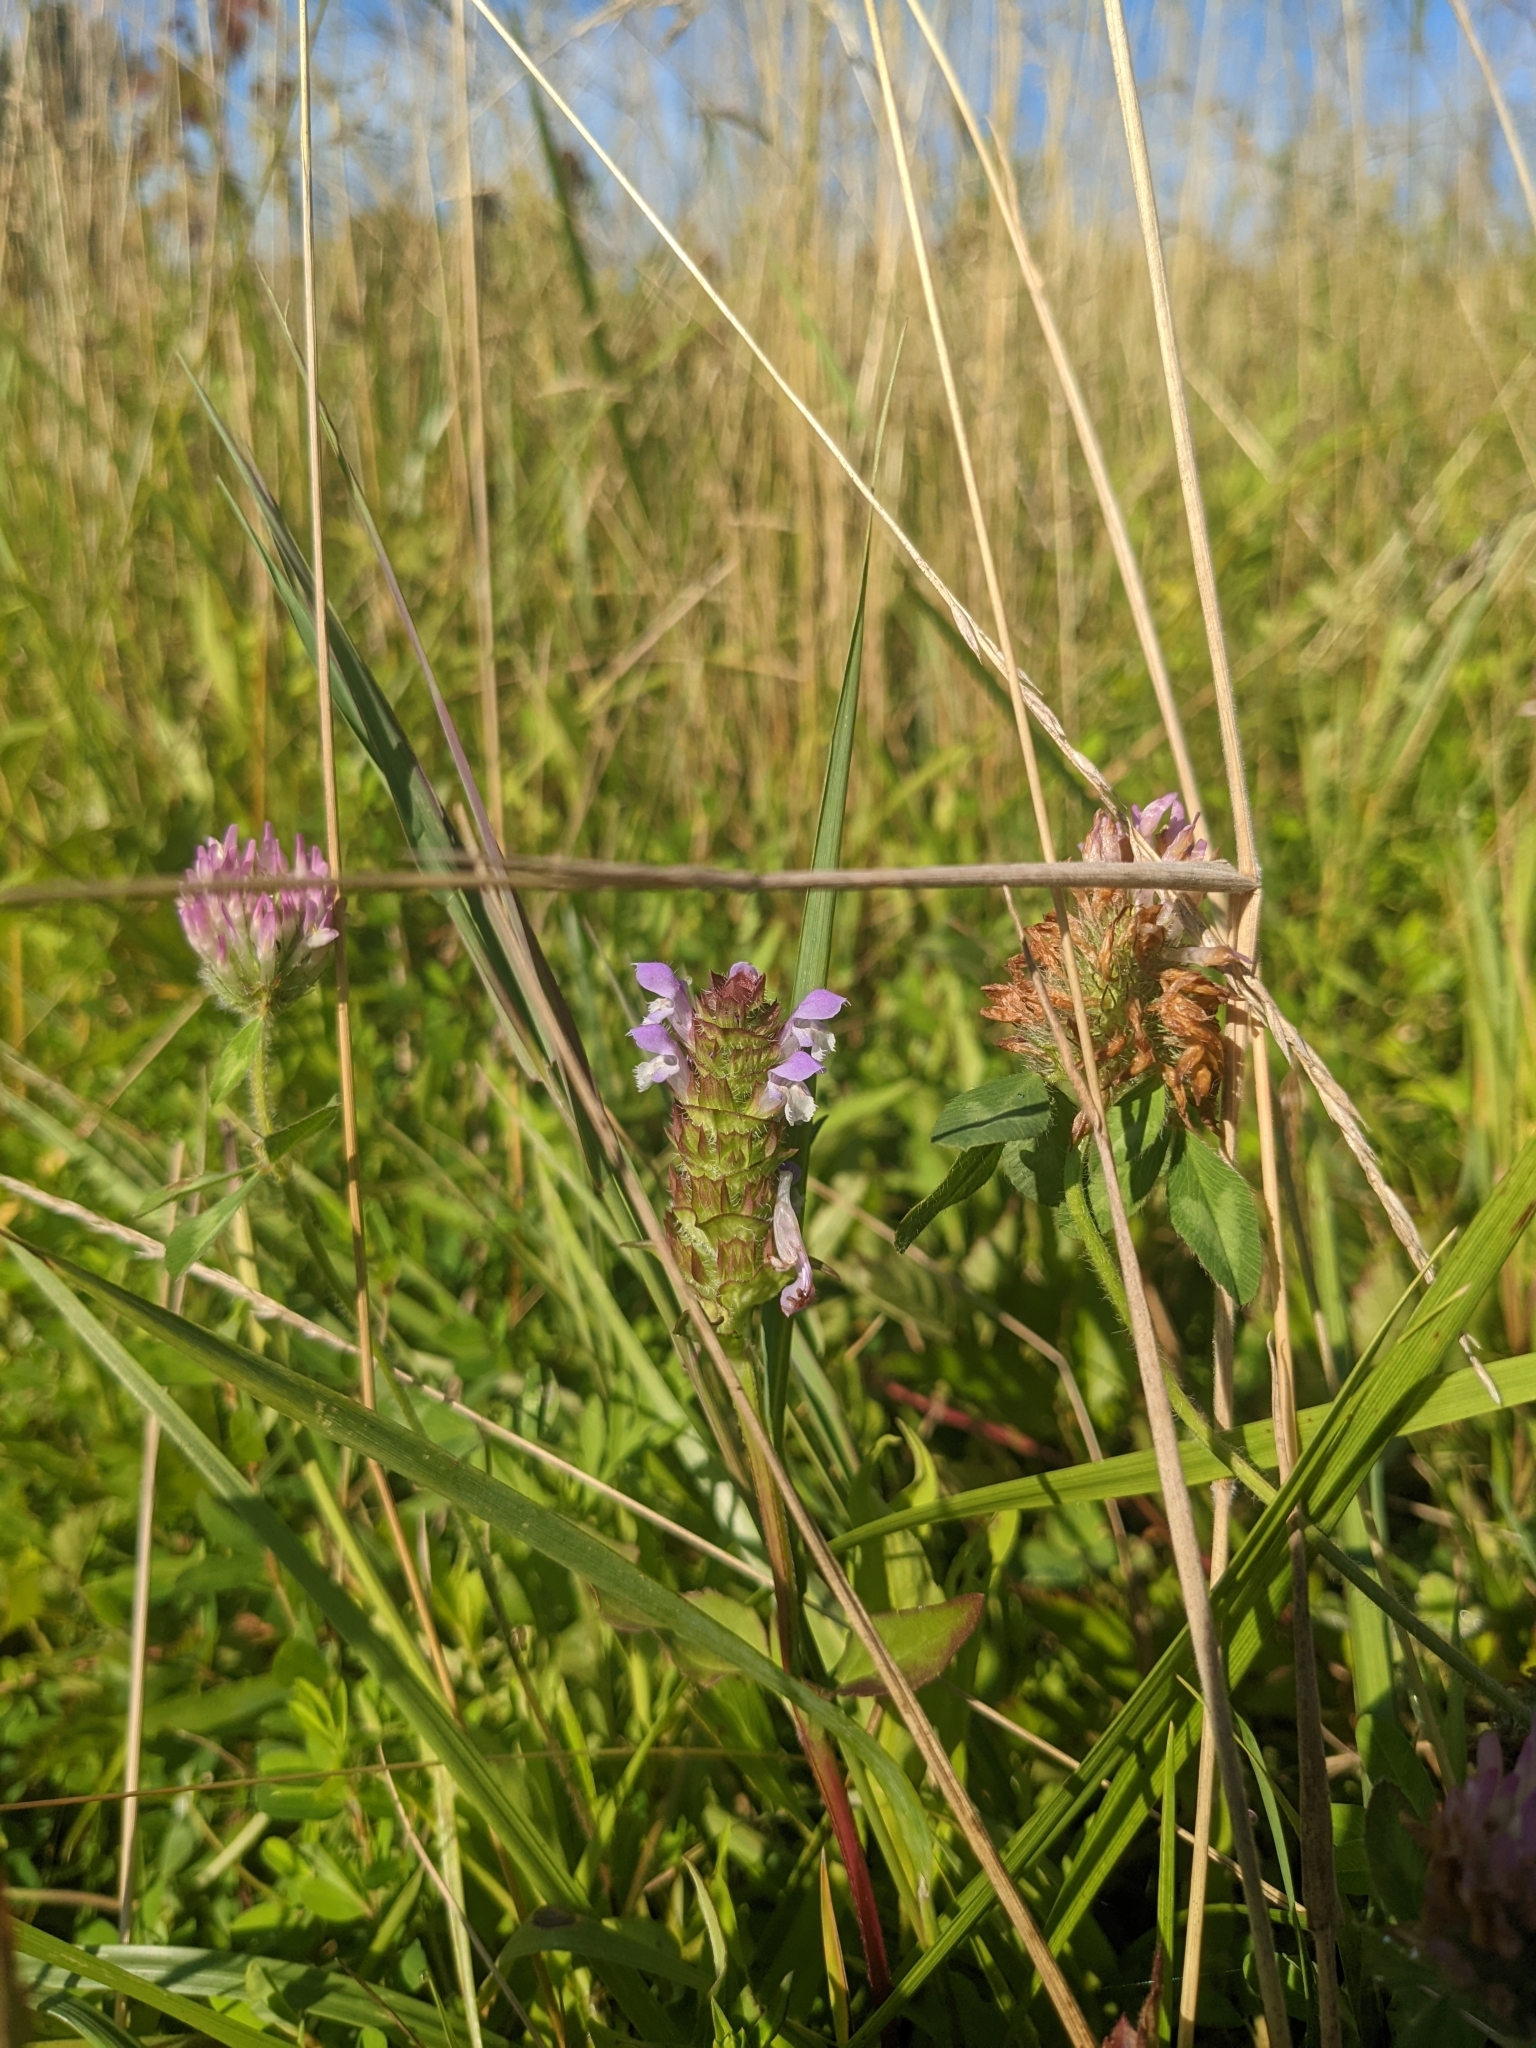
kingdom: Plantae
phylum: Tracheophyta
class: Magnoliopsida
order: Lamiales
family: Lamiaceae
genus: Prunella
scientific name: Prunella vulgaris
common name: Heal-all
